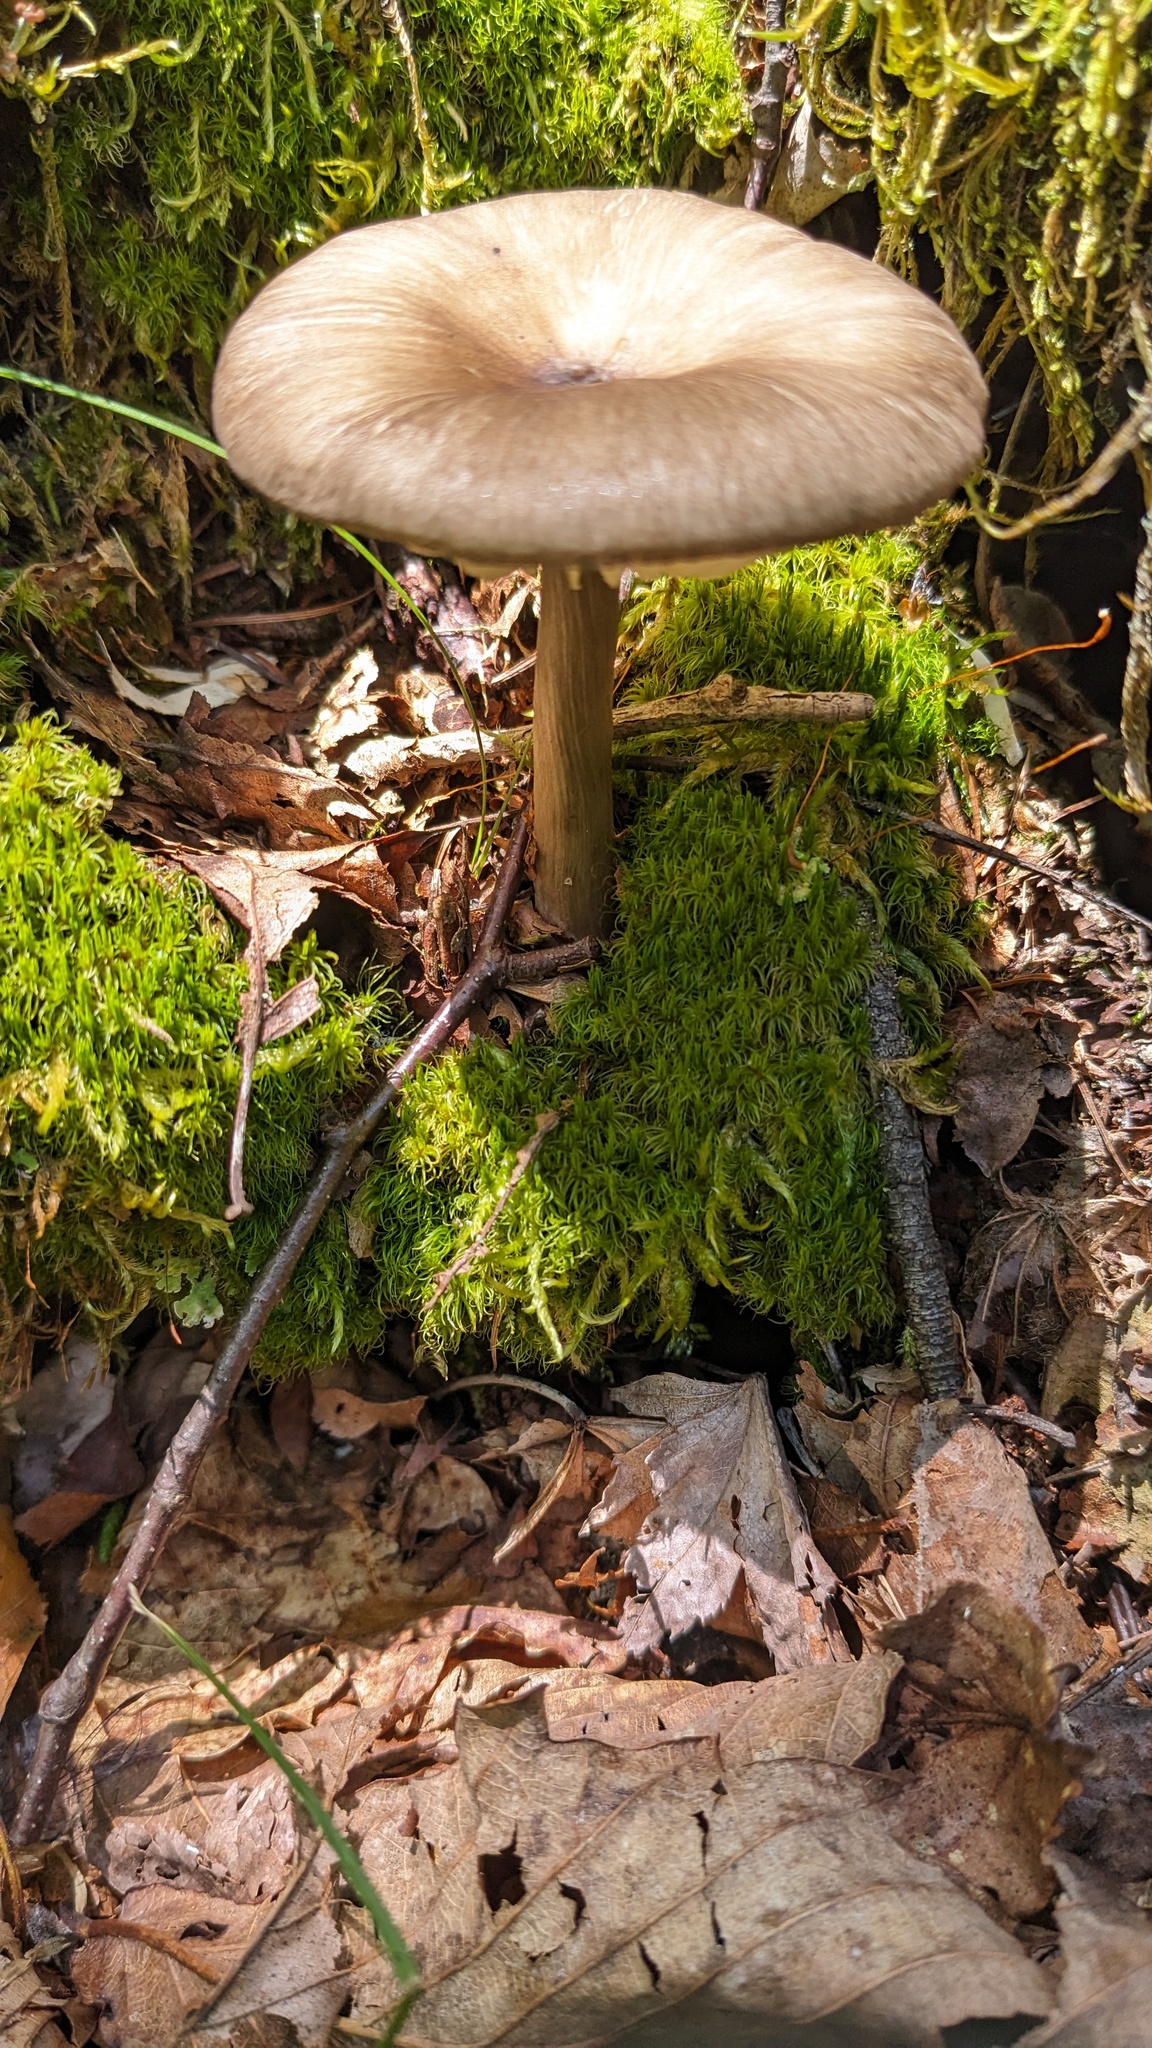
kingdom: Fungi
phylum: Basidiomycota
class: Agaricomycetes
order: Agaricales
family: Tricholomataceae
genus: Megacollybia
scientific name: Megacollybia clitocyboidea
